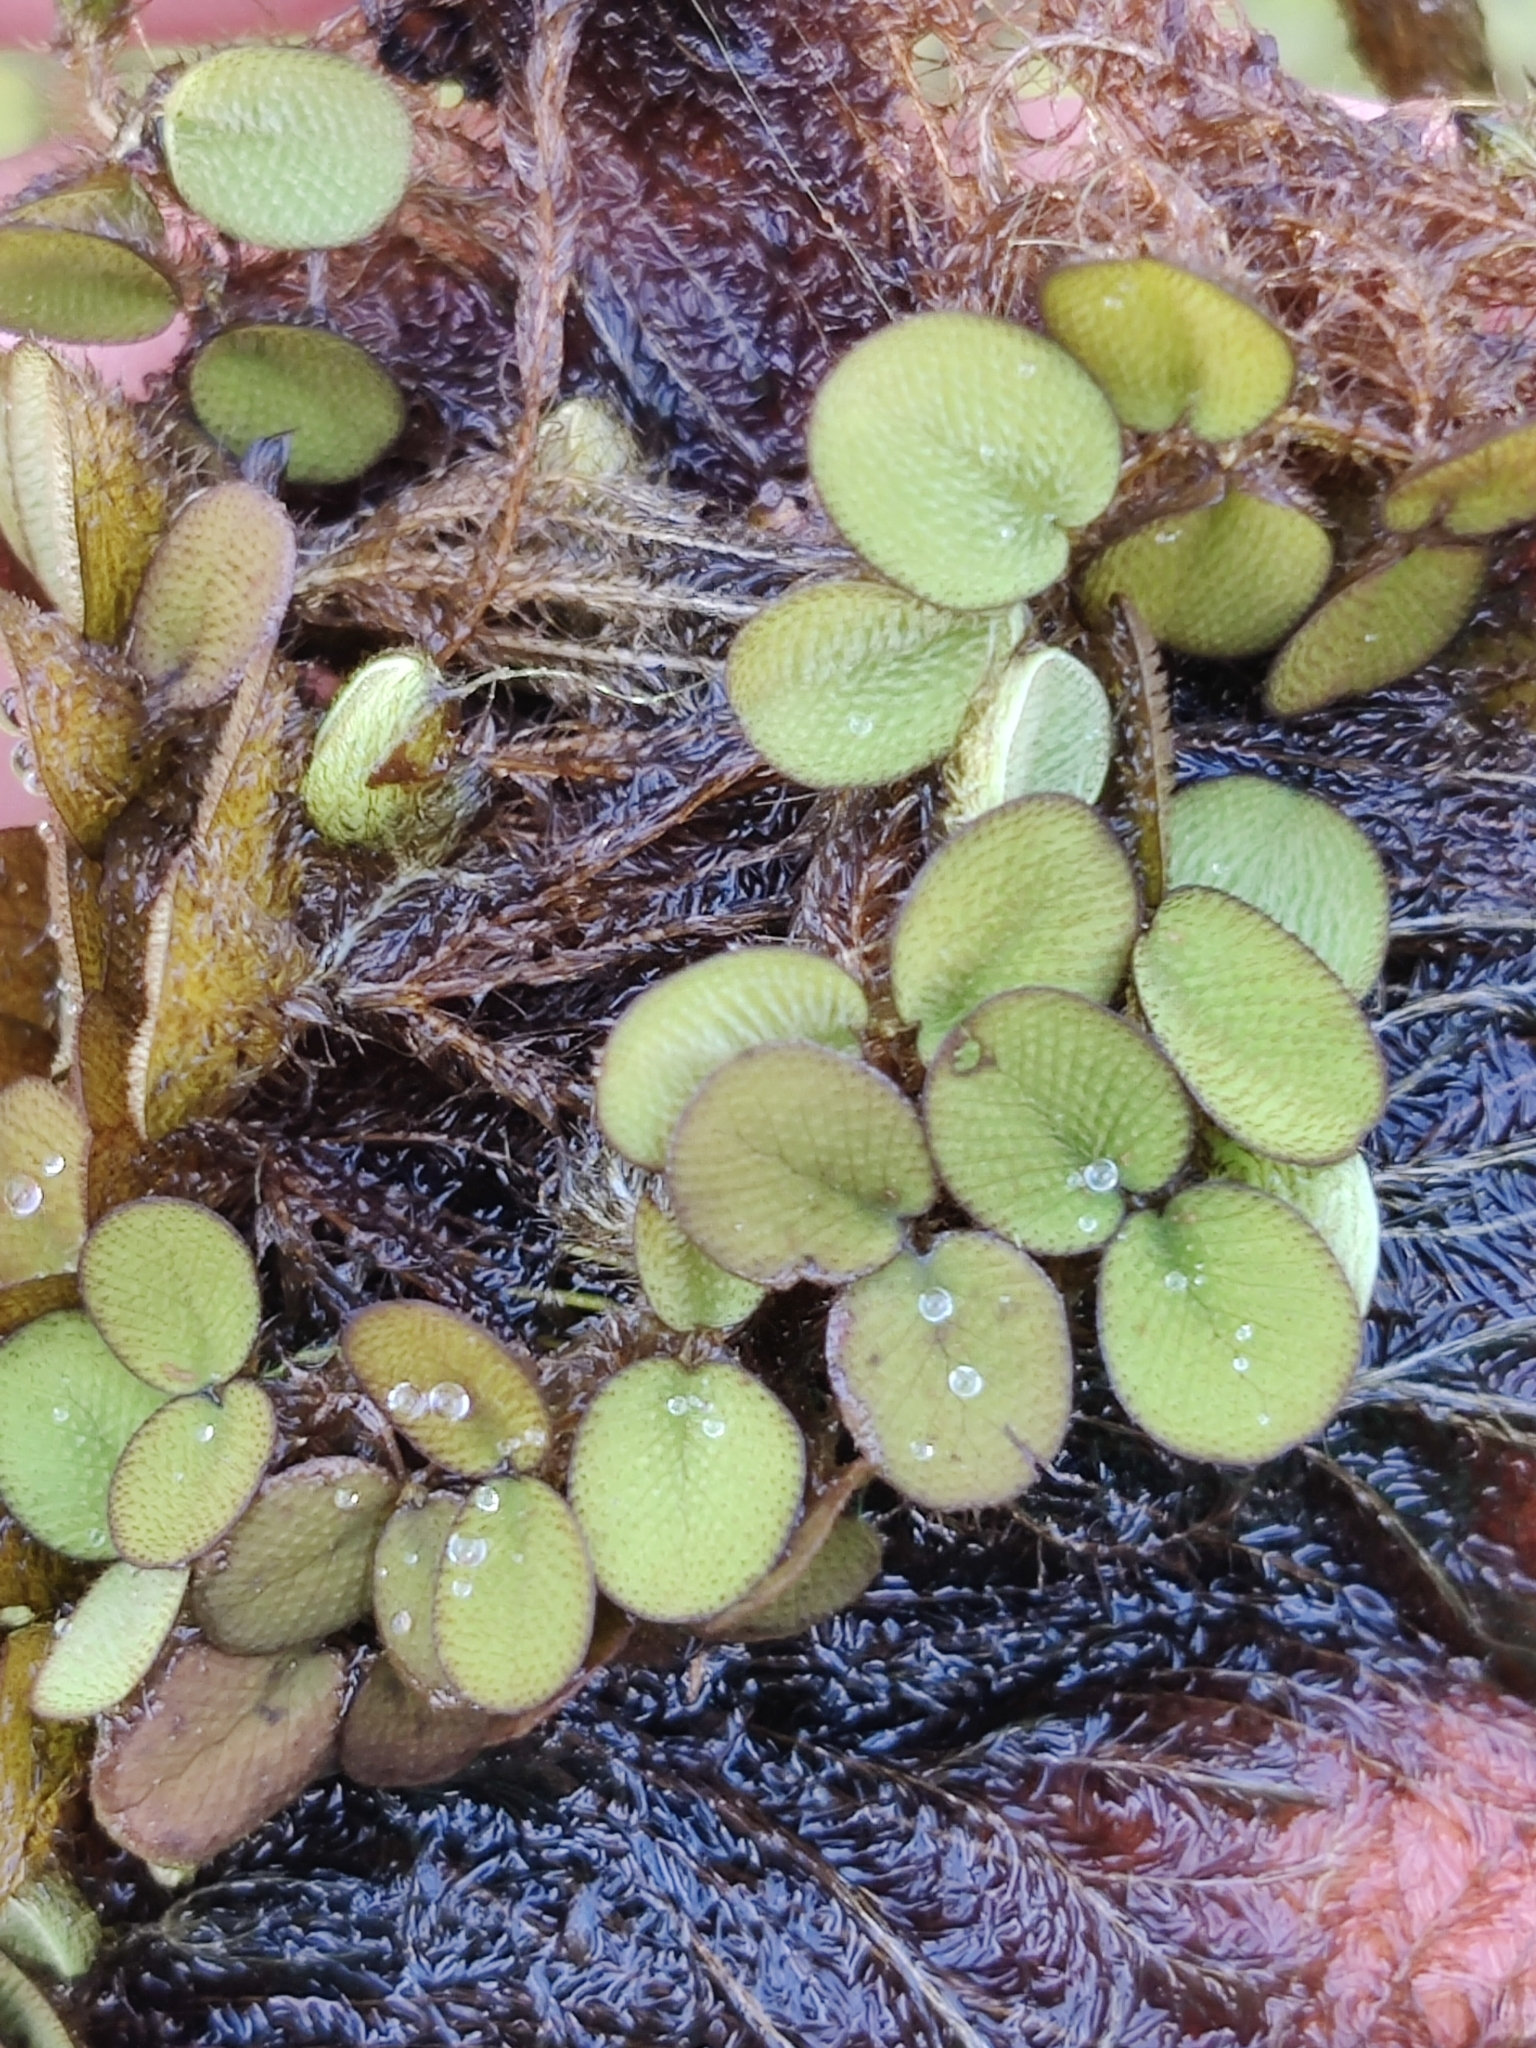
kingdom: Plantae
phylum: Tracheophyta
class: Polypodiopsida
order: Salviniales
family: Salviniaceae
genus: Salvinia
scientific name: Salvinia minima
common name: Water spangles
